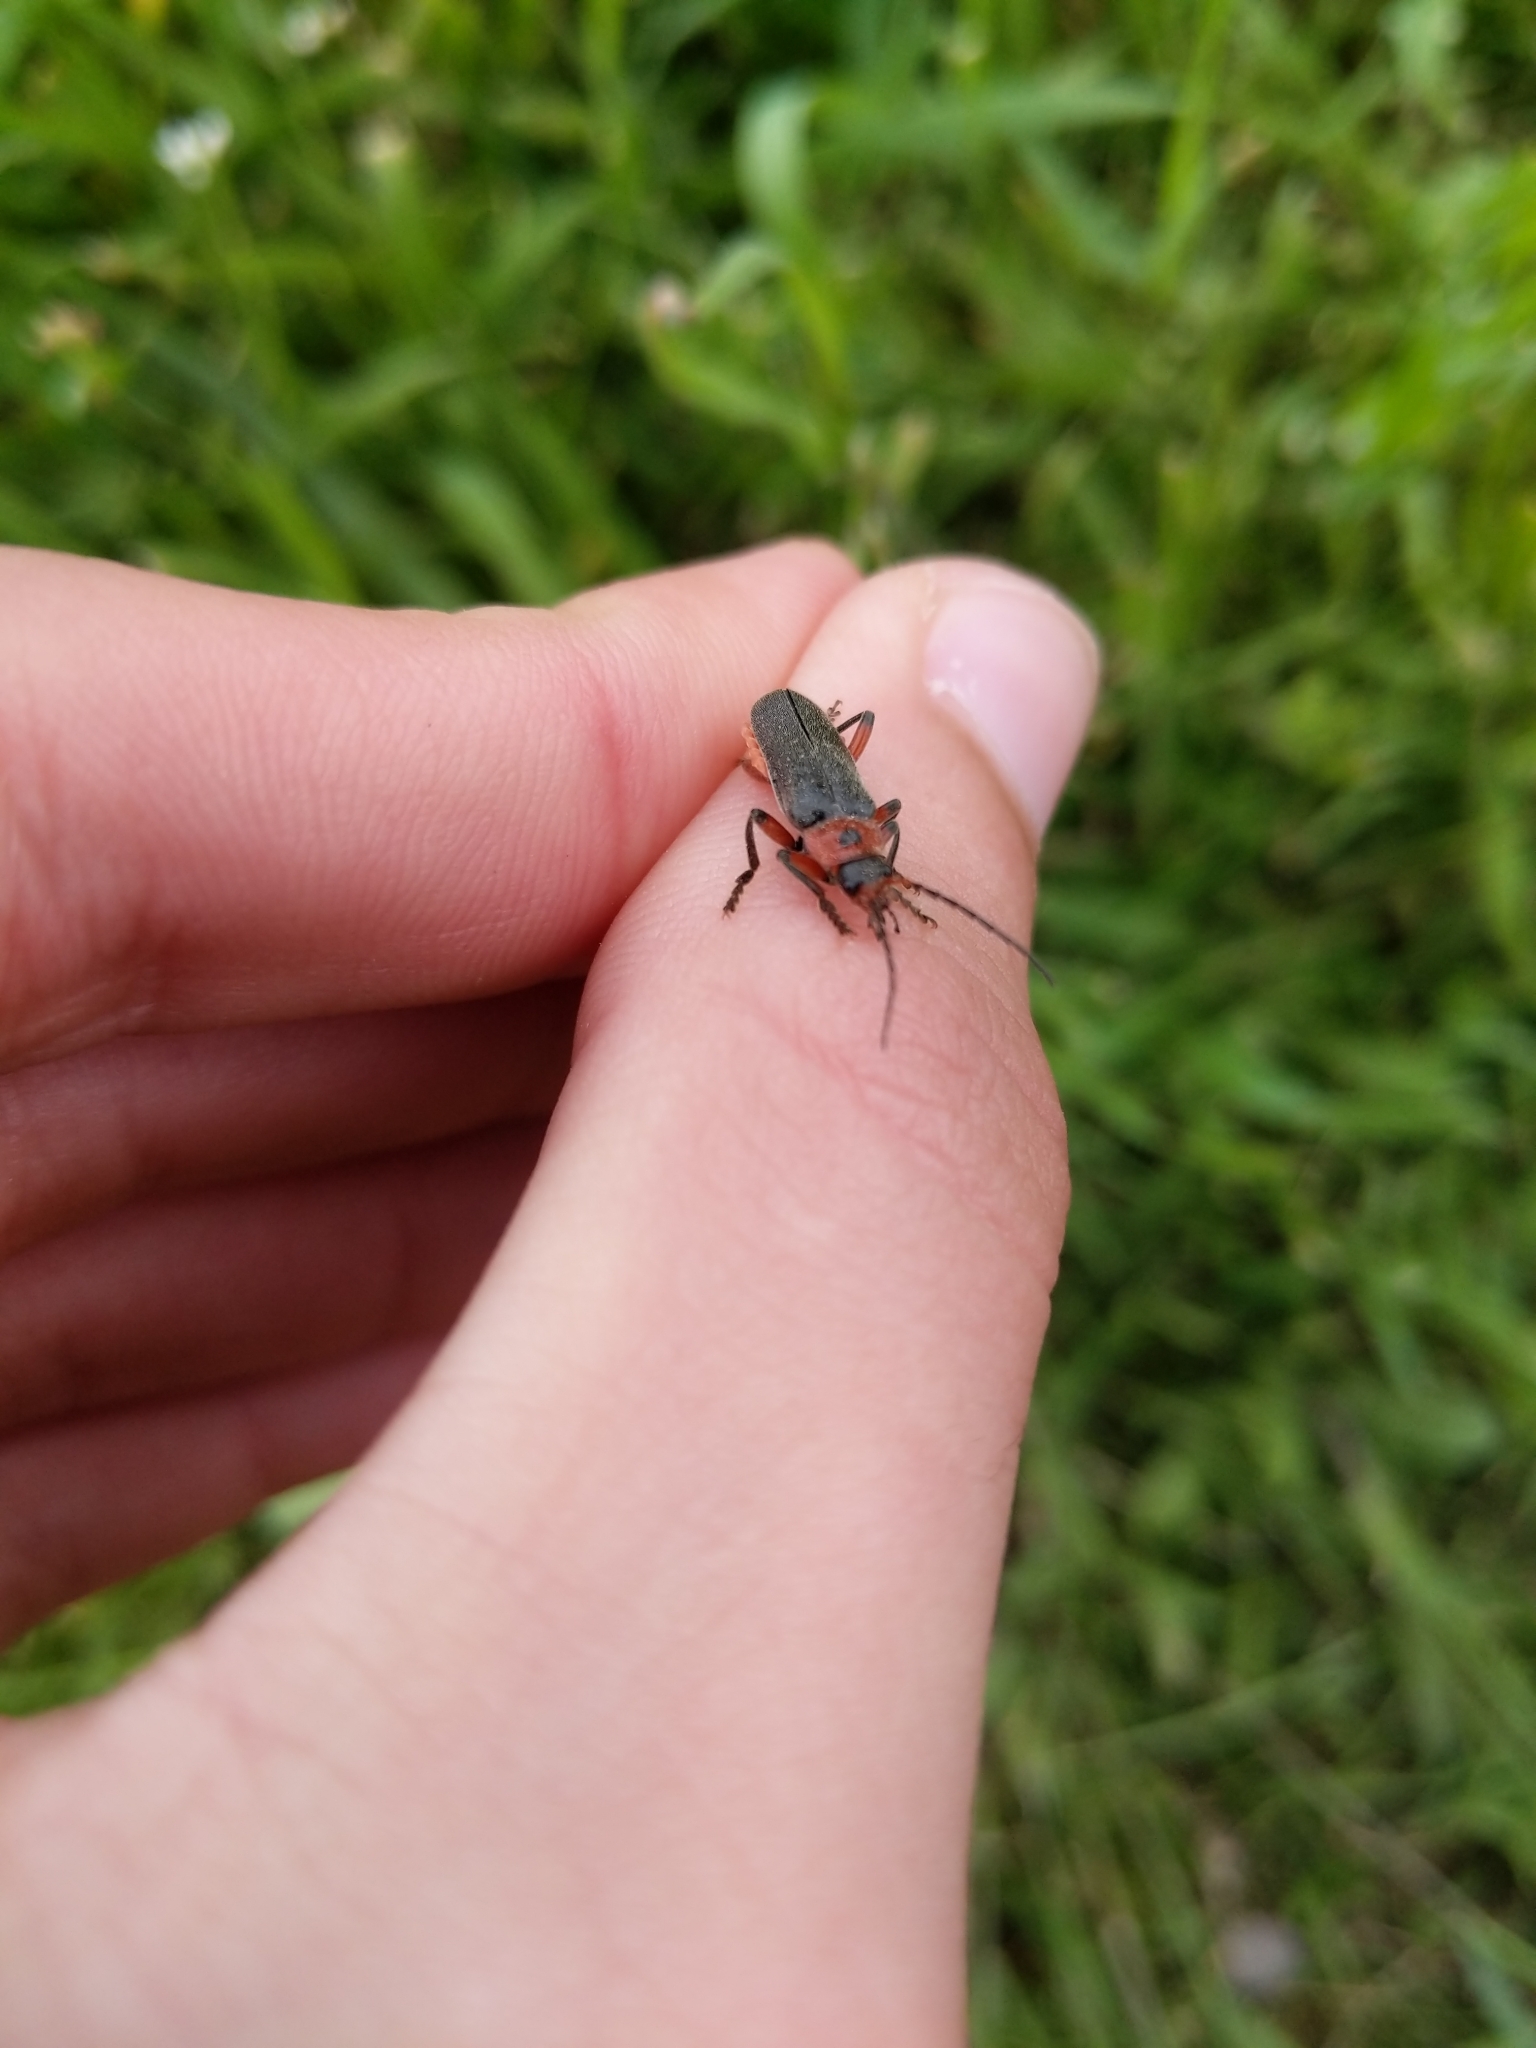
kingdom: Animalia
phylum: Arthropoda
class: Insecta
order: Coleoptera
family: Cantharidae
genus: Cantharis
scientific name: Cantharis rustica
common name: Soldier beetle
